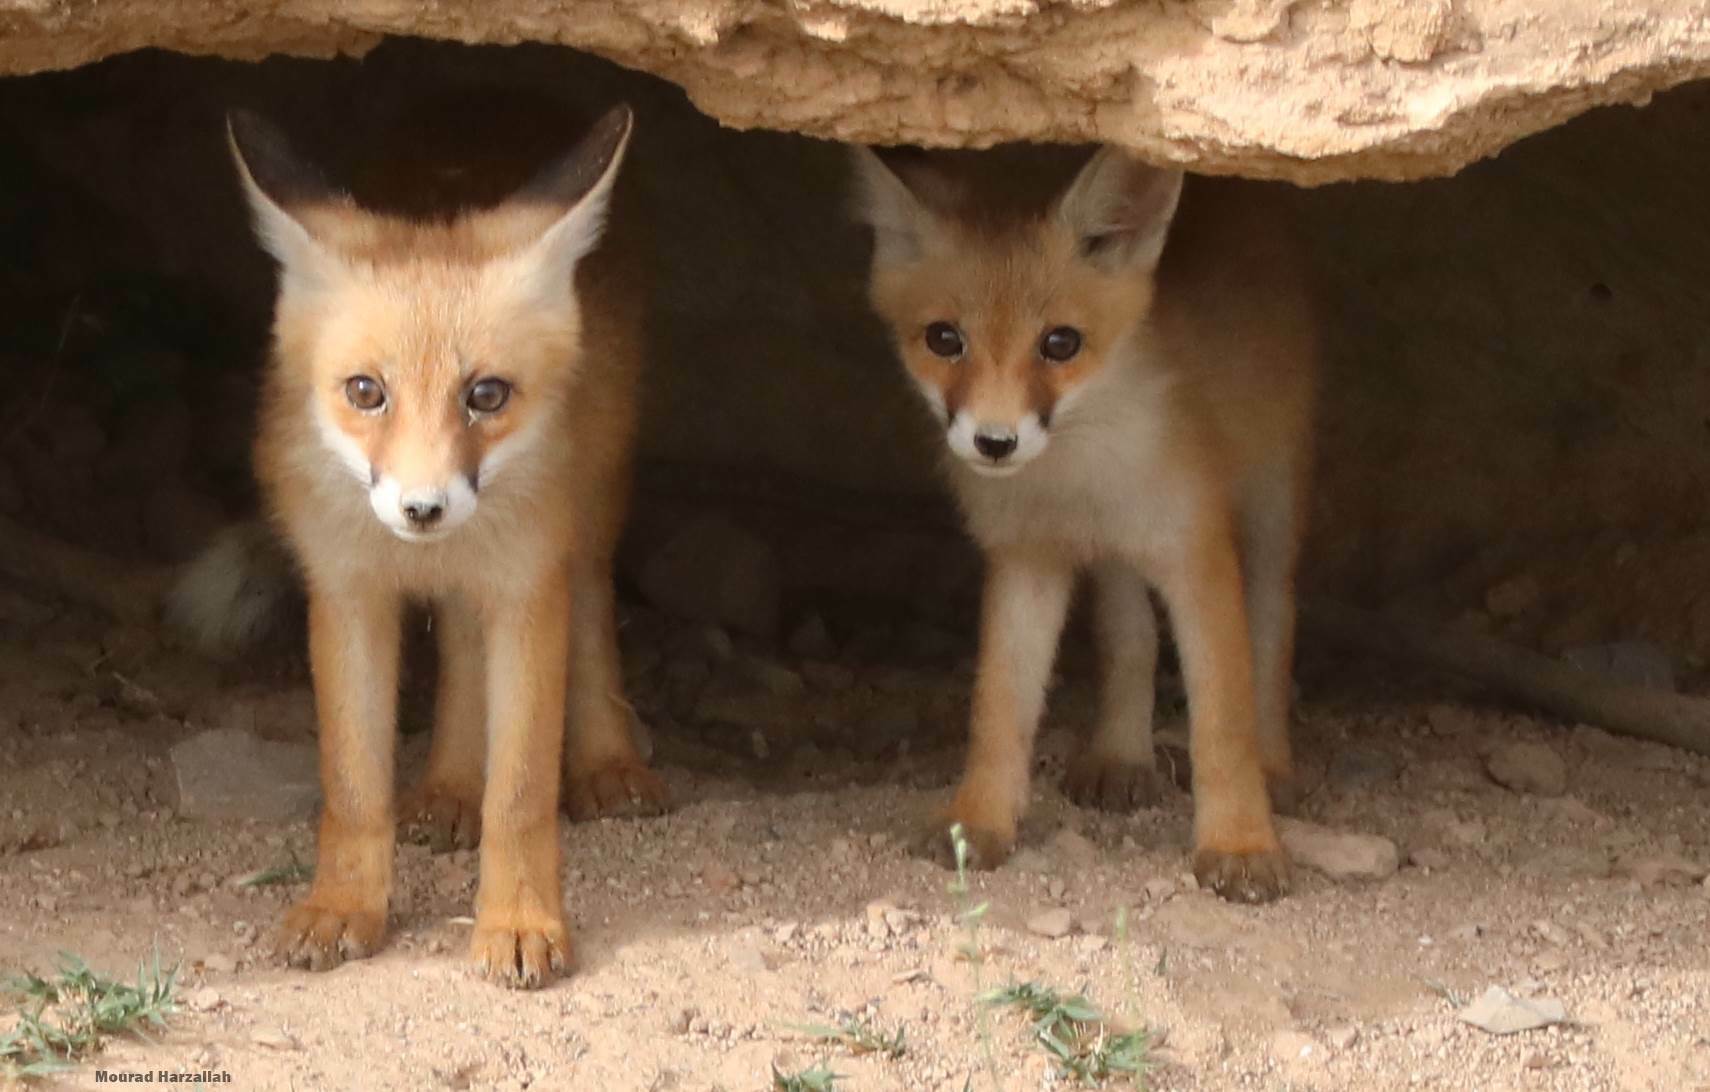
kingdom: Animalia
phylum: Chordata
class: Mammalia
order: Carnivora
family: Canidae
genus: Vulpes
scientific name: Vulpes vulpes
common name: Red fox
